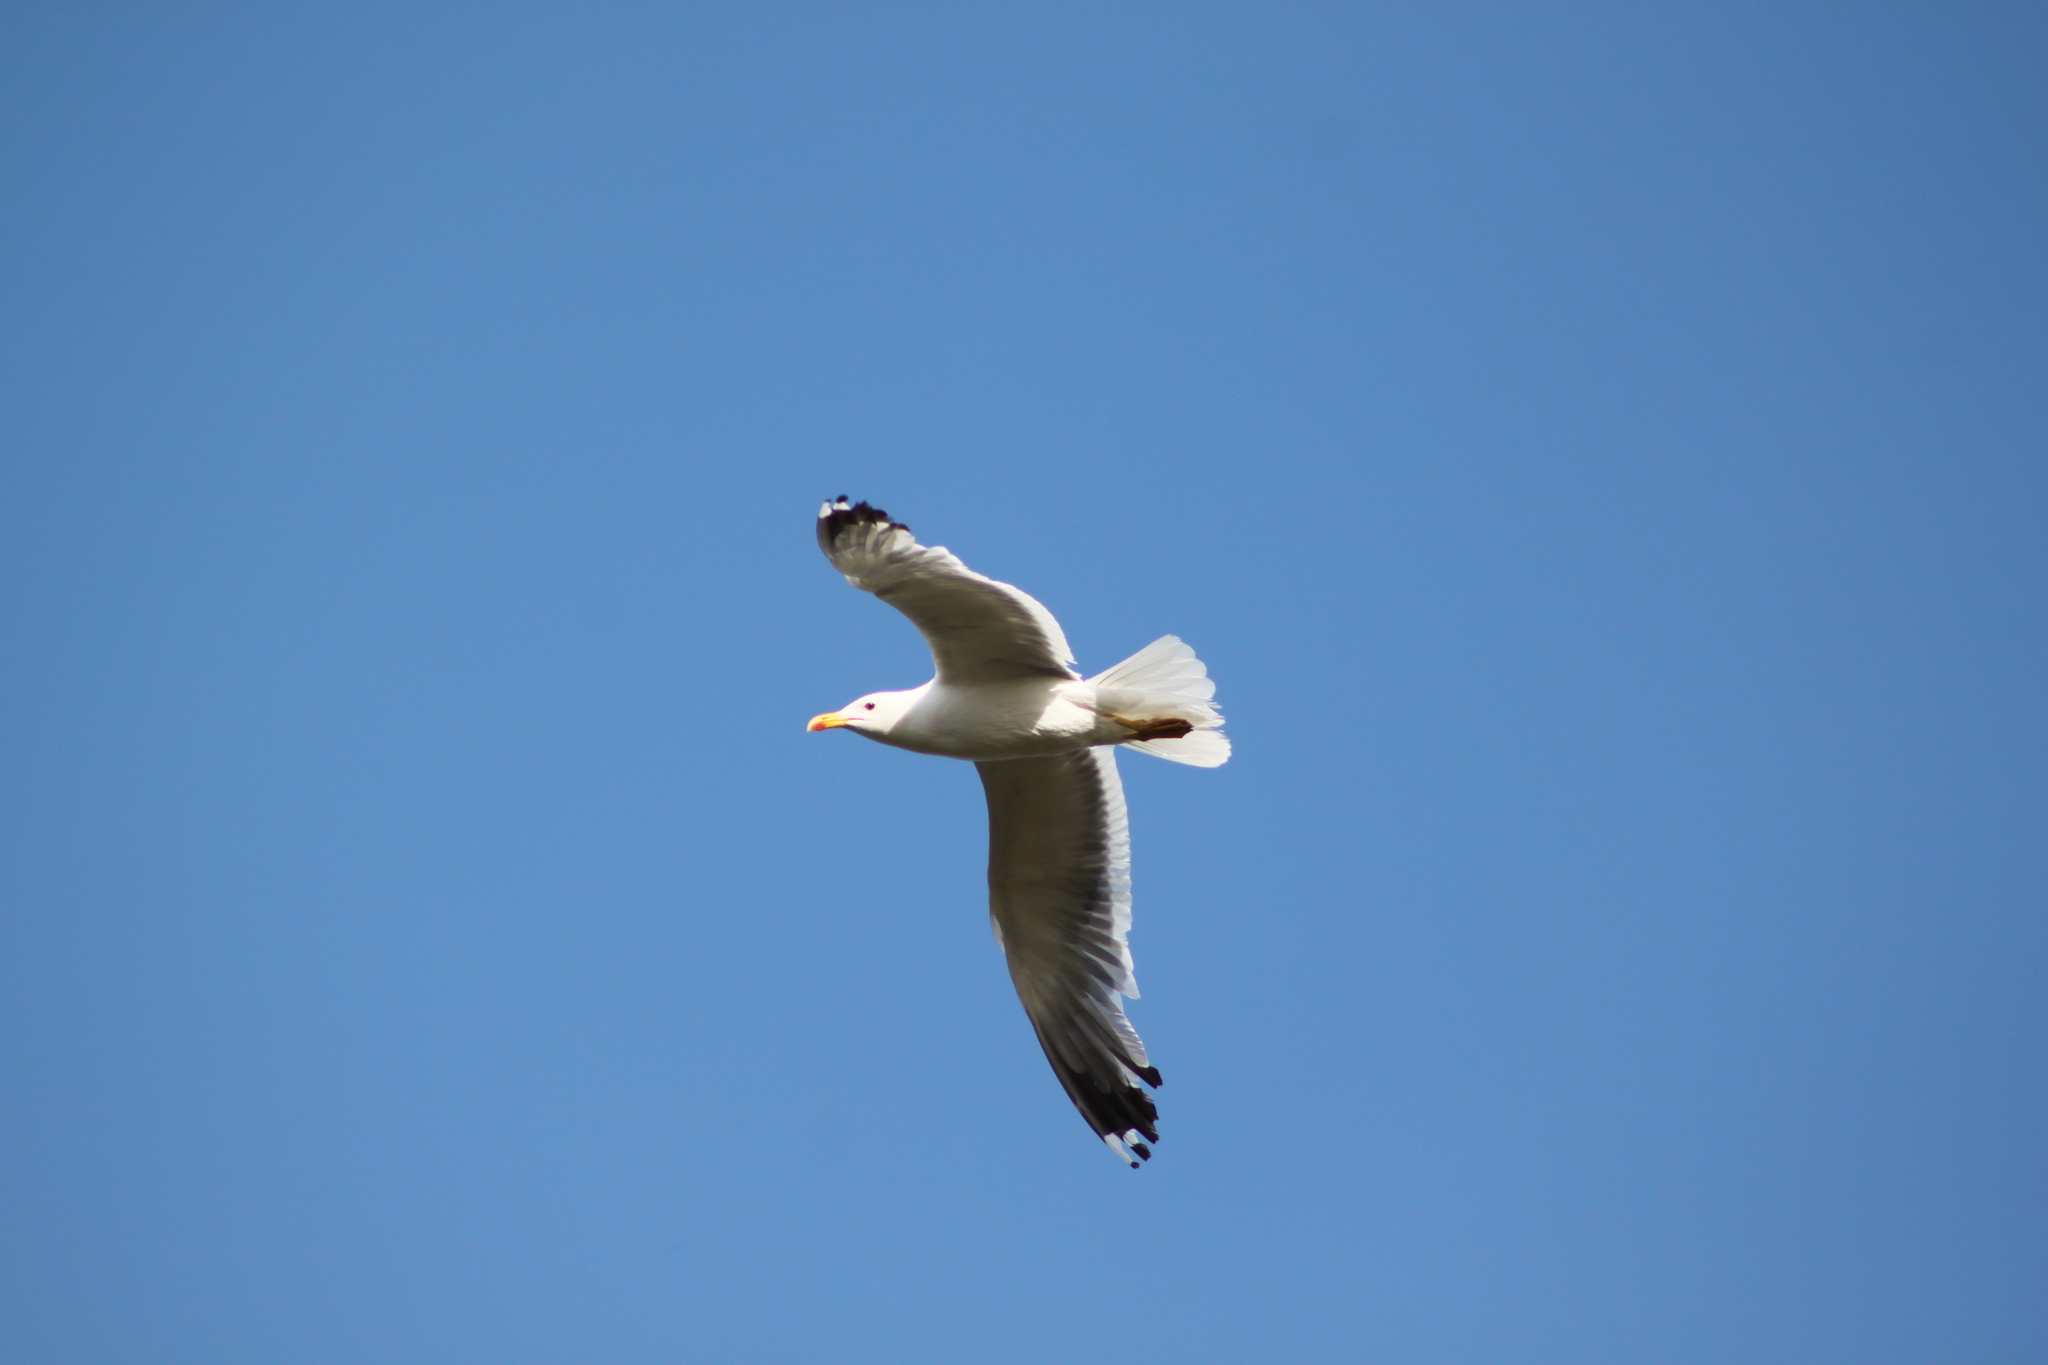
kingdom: Animalia
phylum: Chordata
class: Aves
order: Charadriiformes
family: Laridae
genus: Larus
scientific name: Larus cachinnans
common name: Caspian gull
